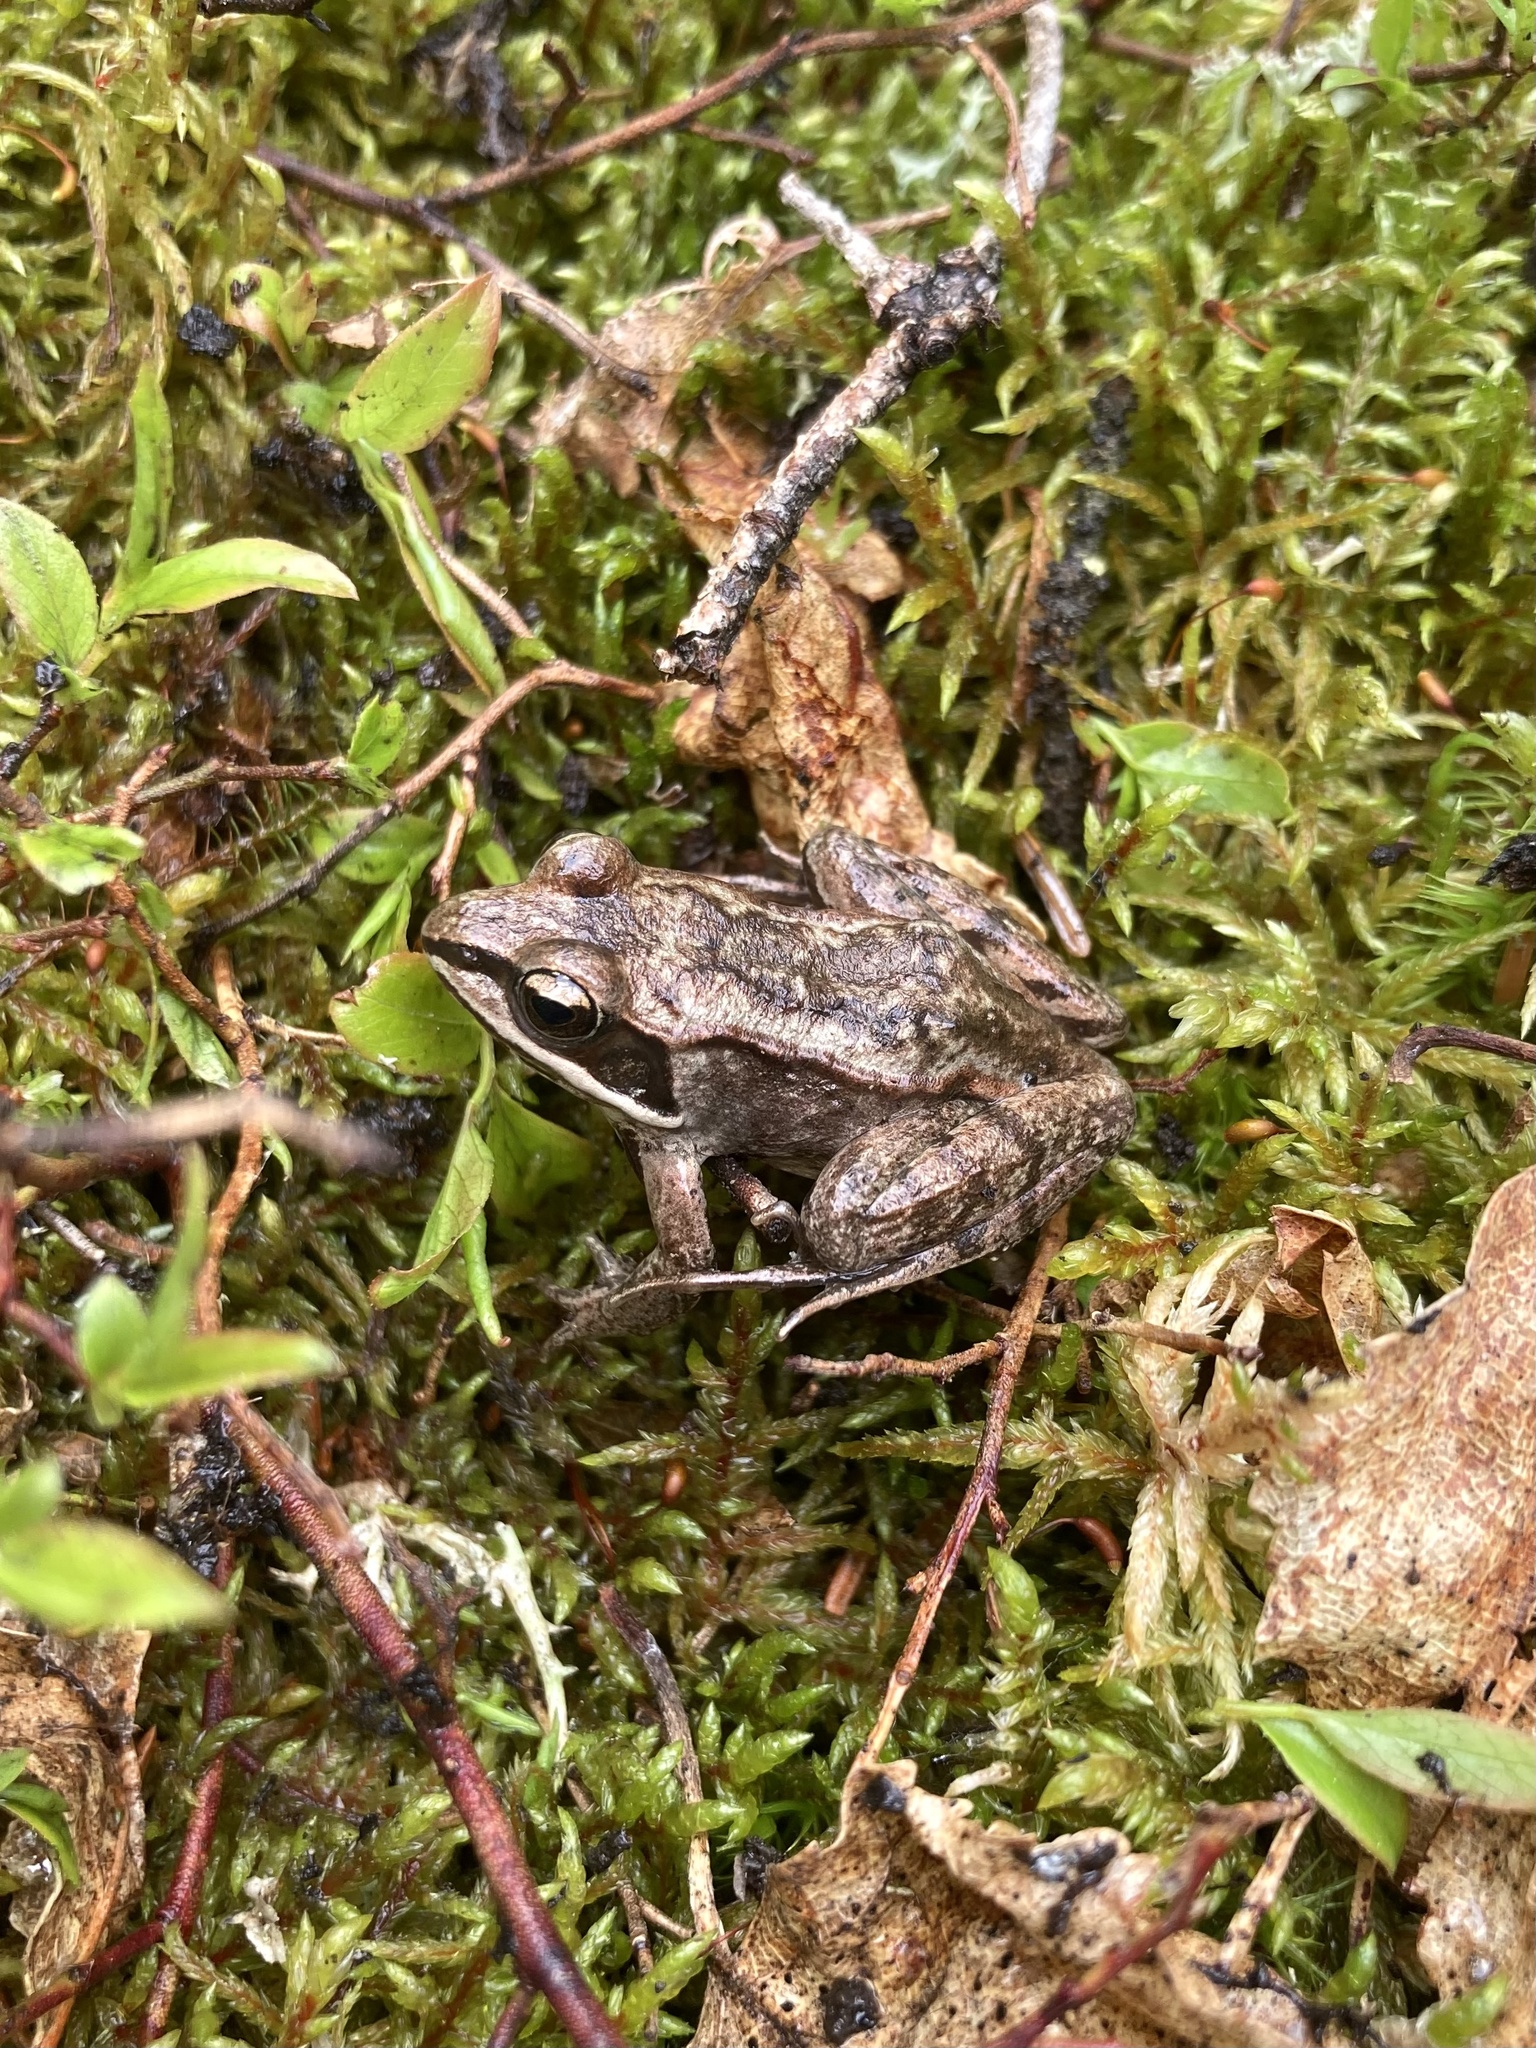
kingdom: Animalia
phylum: Chordata
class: Amphibia
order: Anura
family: Ranidae
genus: Lithobates
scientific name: Lithobates sylvaticus
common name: Wood frog
